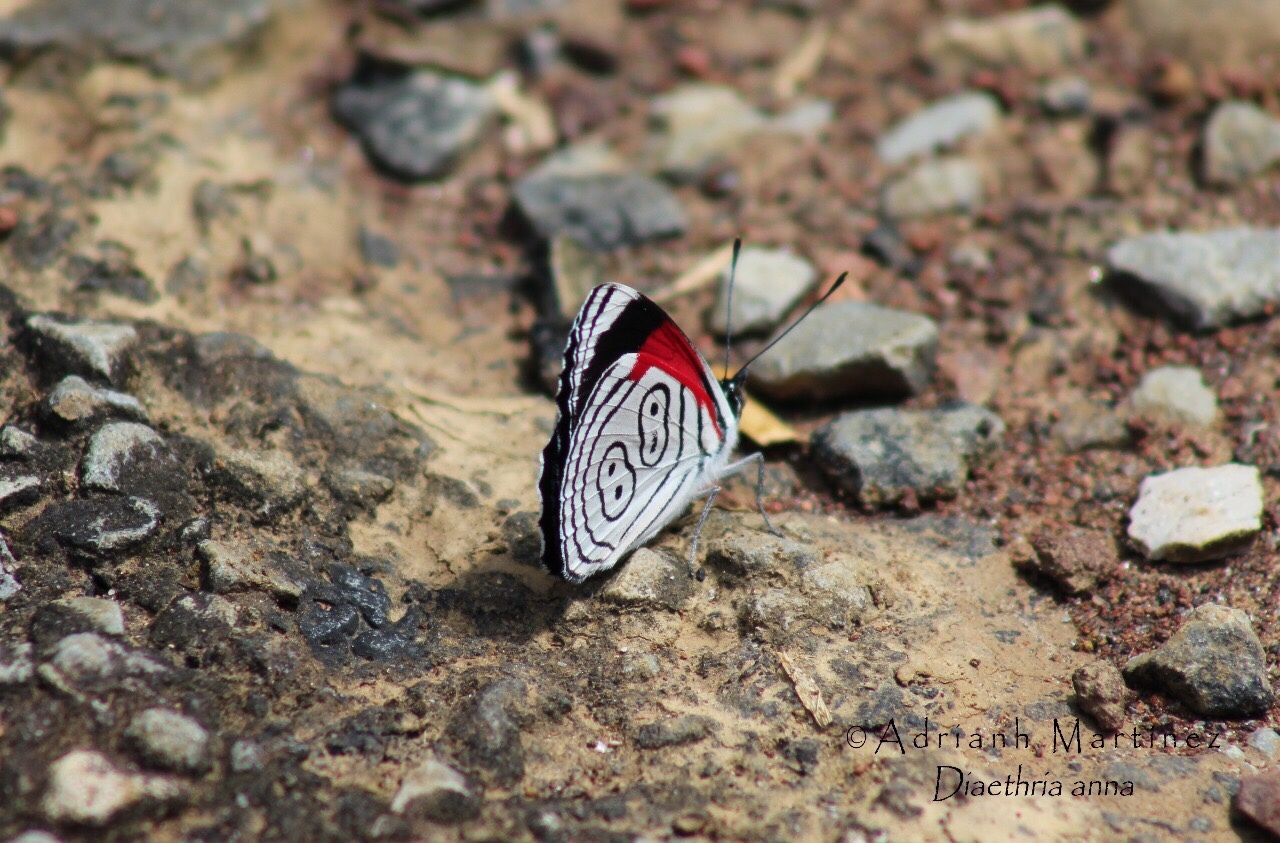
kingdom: Animalia
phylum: Arthropoda
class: Insecta
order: Lepidoptera
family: Nymphalidae
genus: Diaethria
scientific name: Diaethria anna
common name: Anna’s eighty-eight
